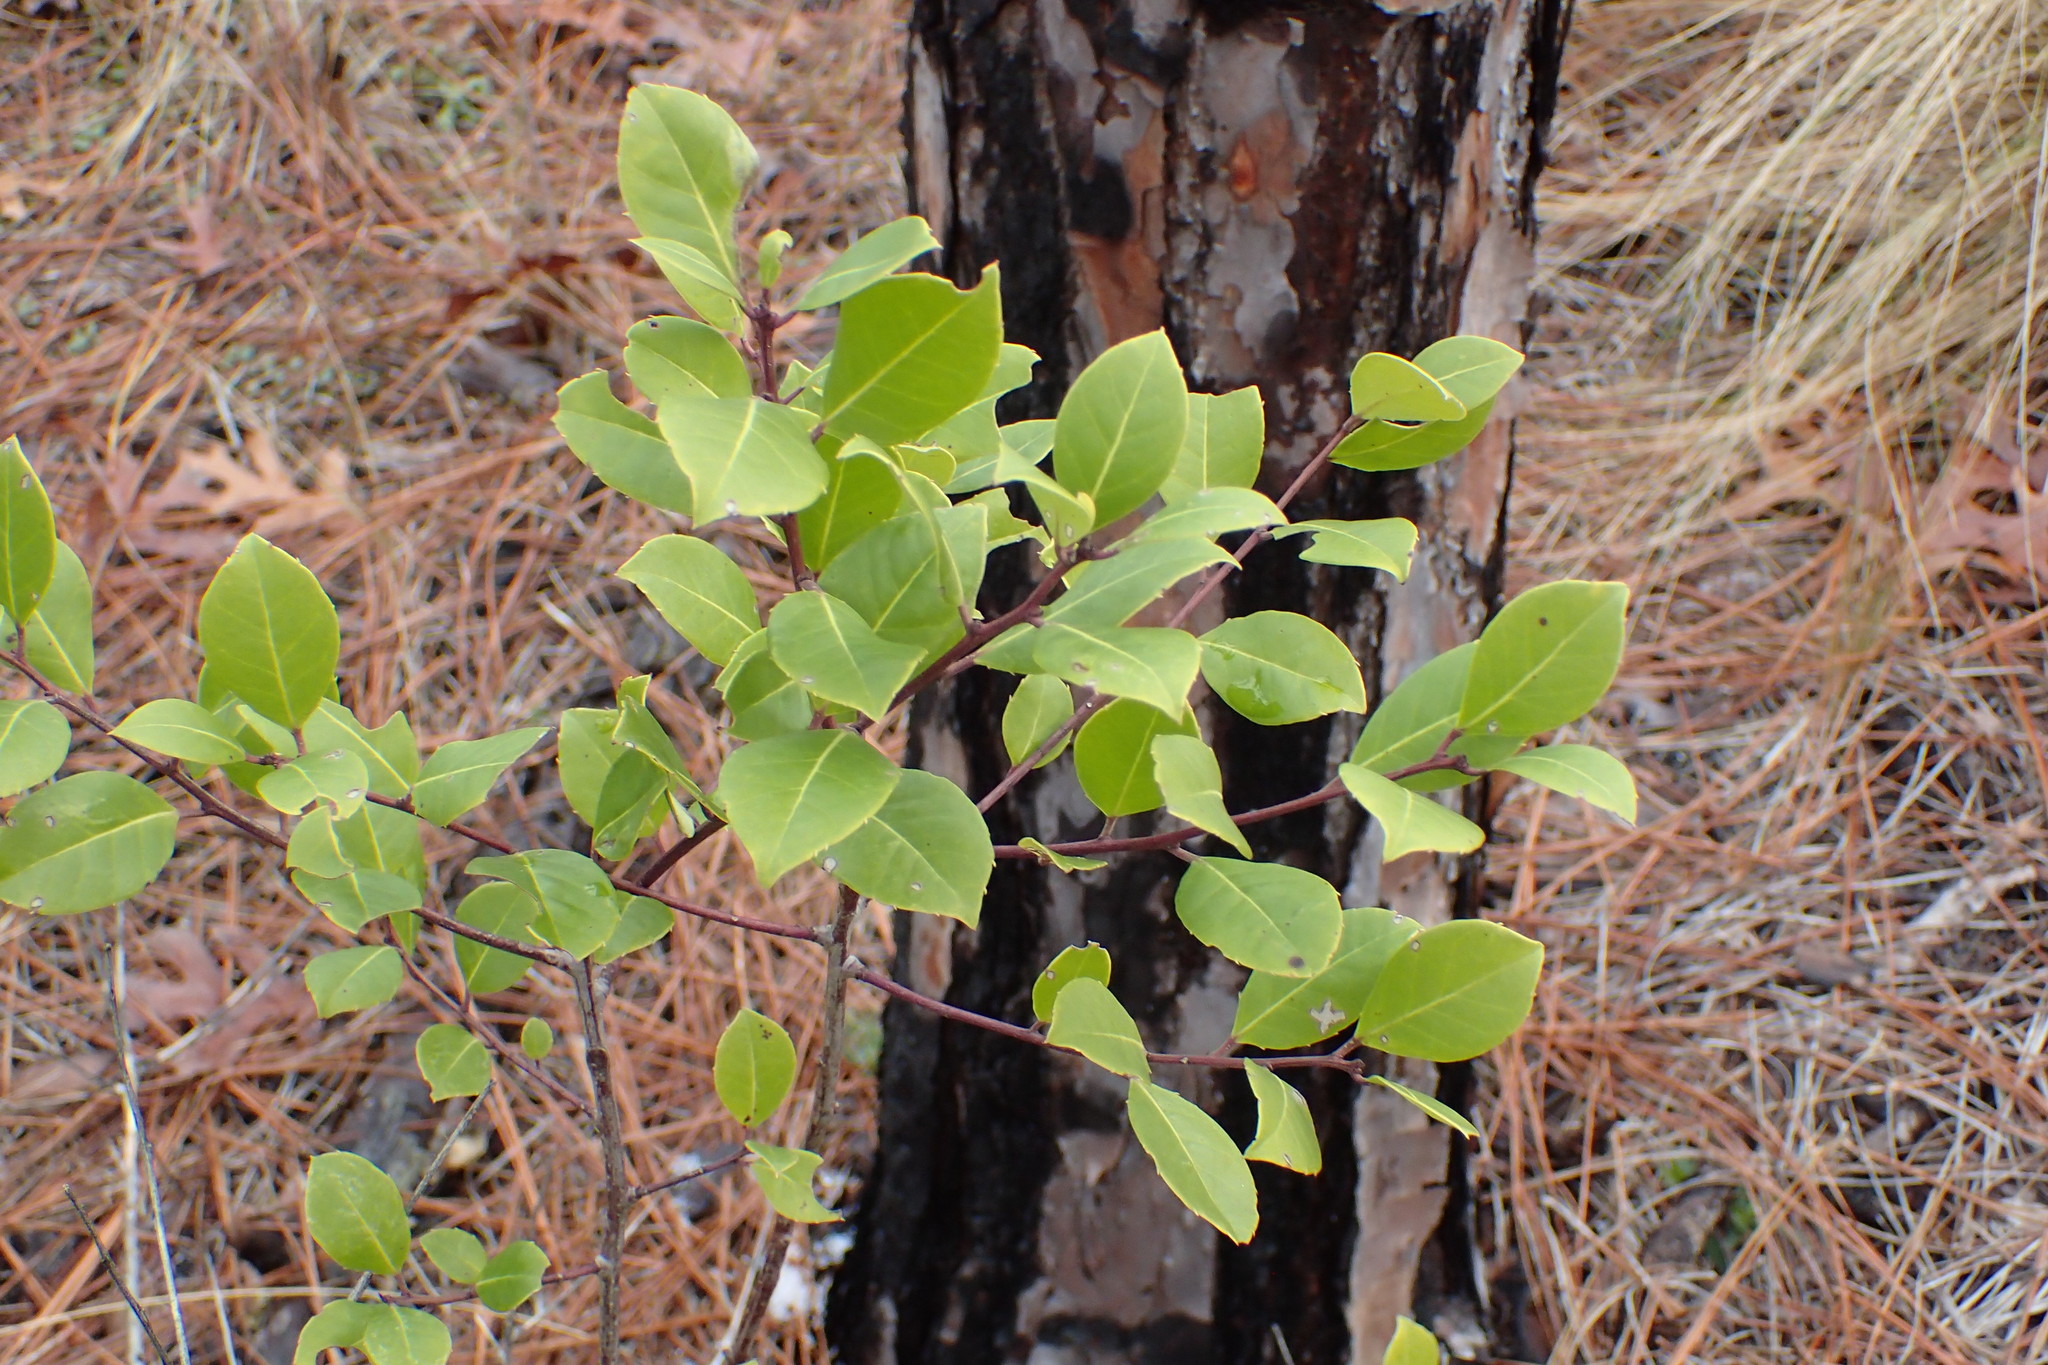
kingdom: Plantae
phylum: Tracheophyta
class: Magnoliopsida
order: Aquifoliales
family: Aquifoliaceae
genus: Ilex
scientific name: Ilex coriacea
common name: Sweet gallberry
